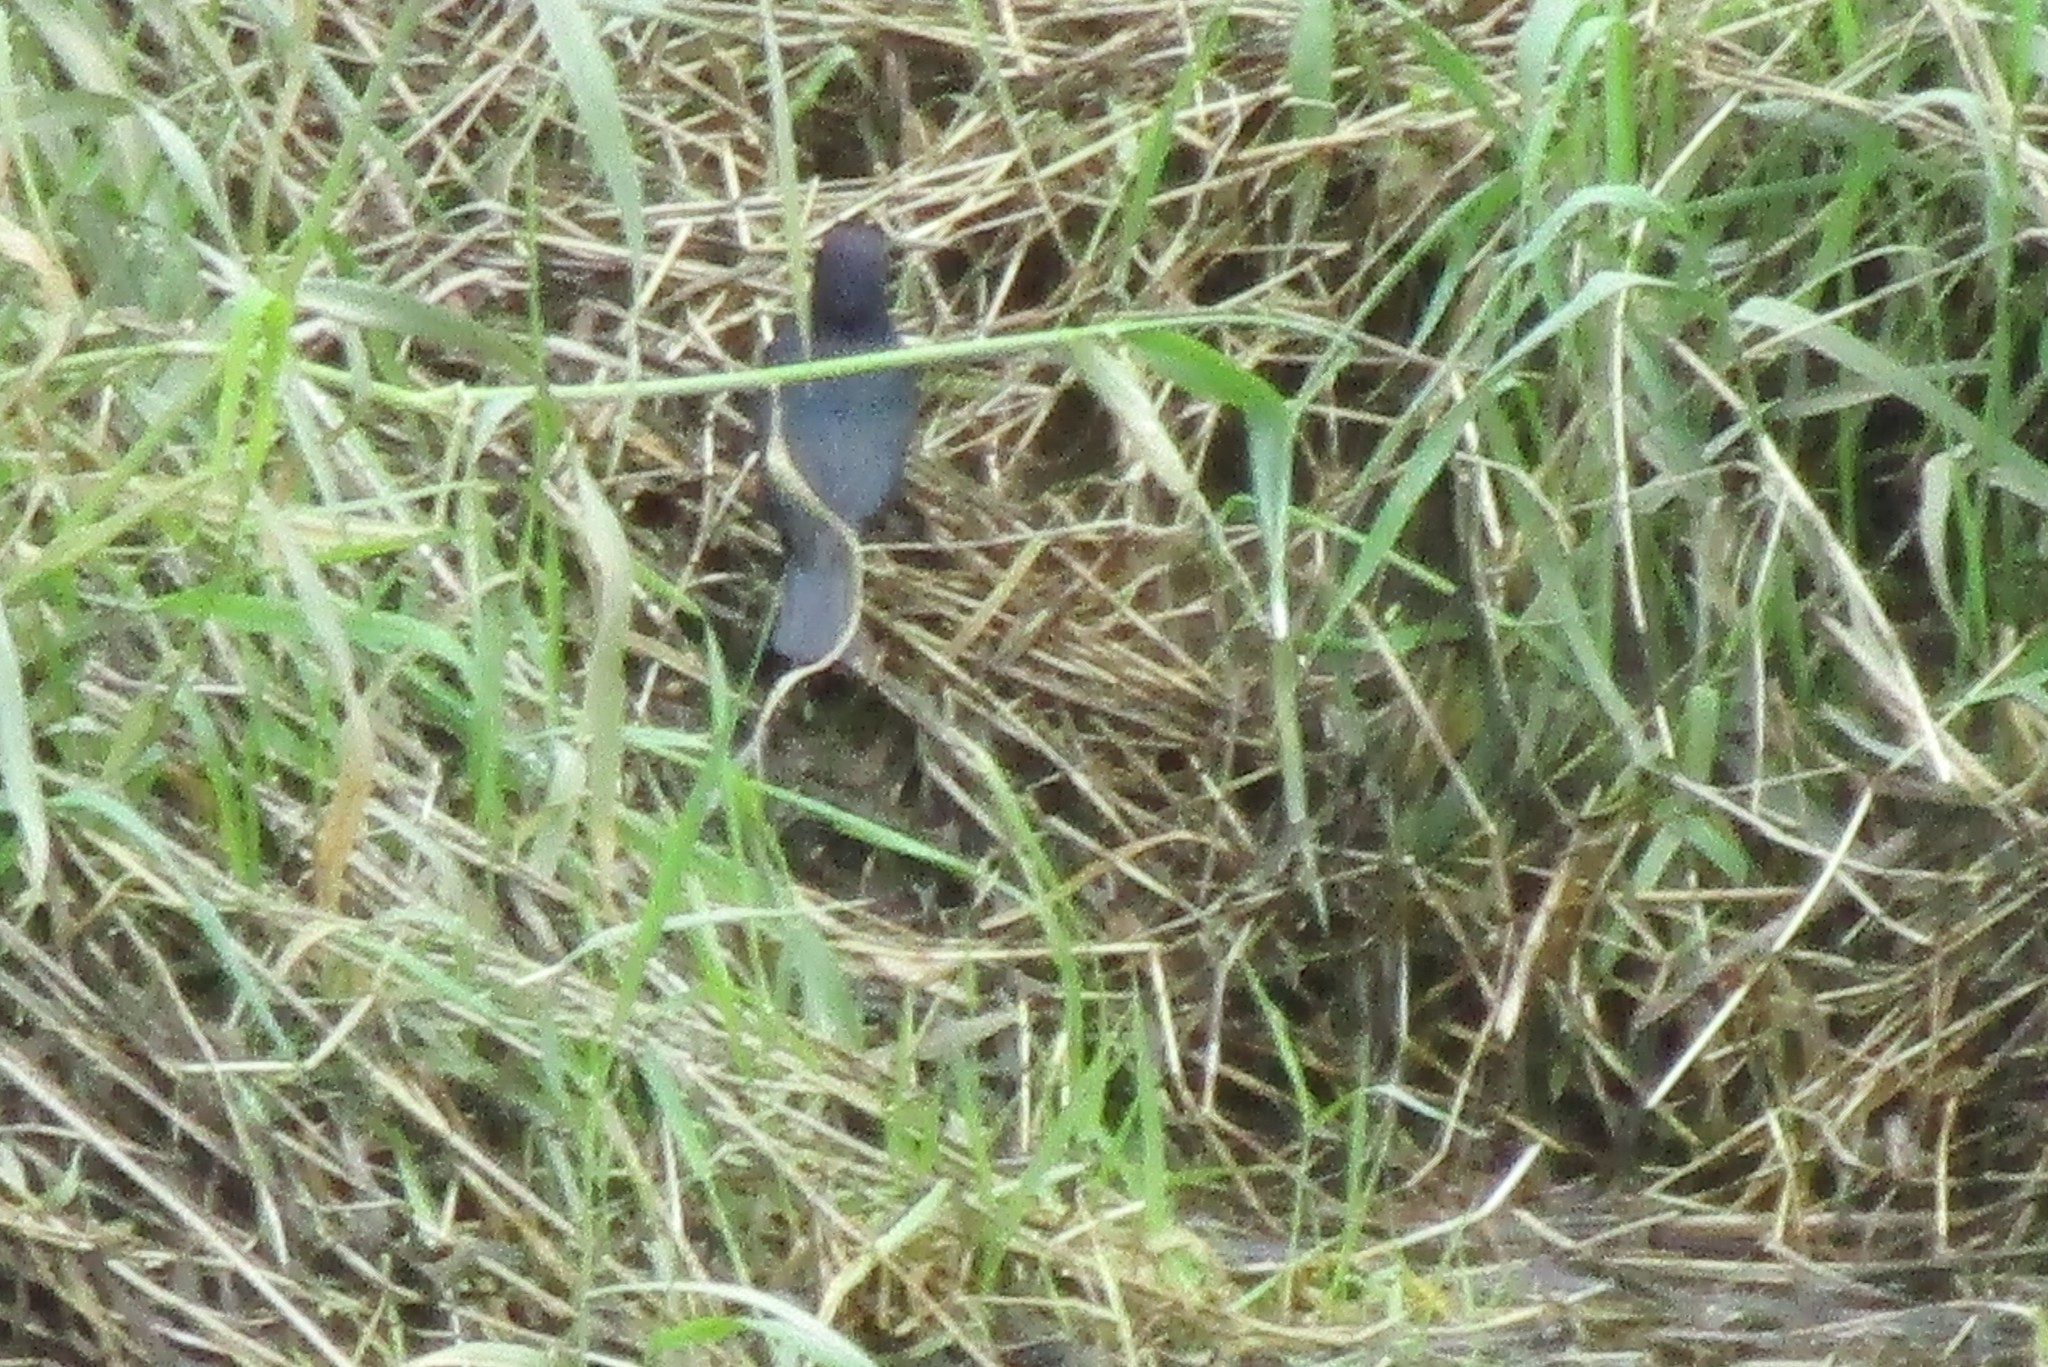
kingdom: Animalia
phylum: Chordata
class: Aves
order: Passeriformes
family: Icteridae
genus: Euphagus
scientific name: Euphagus cyanocephalus
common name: Brewer's blackbird
